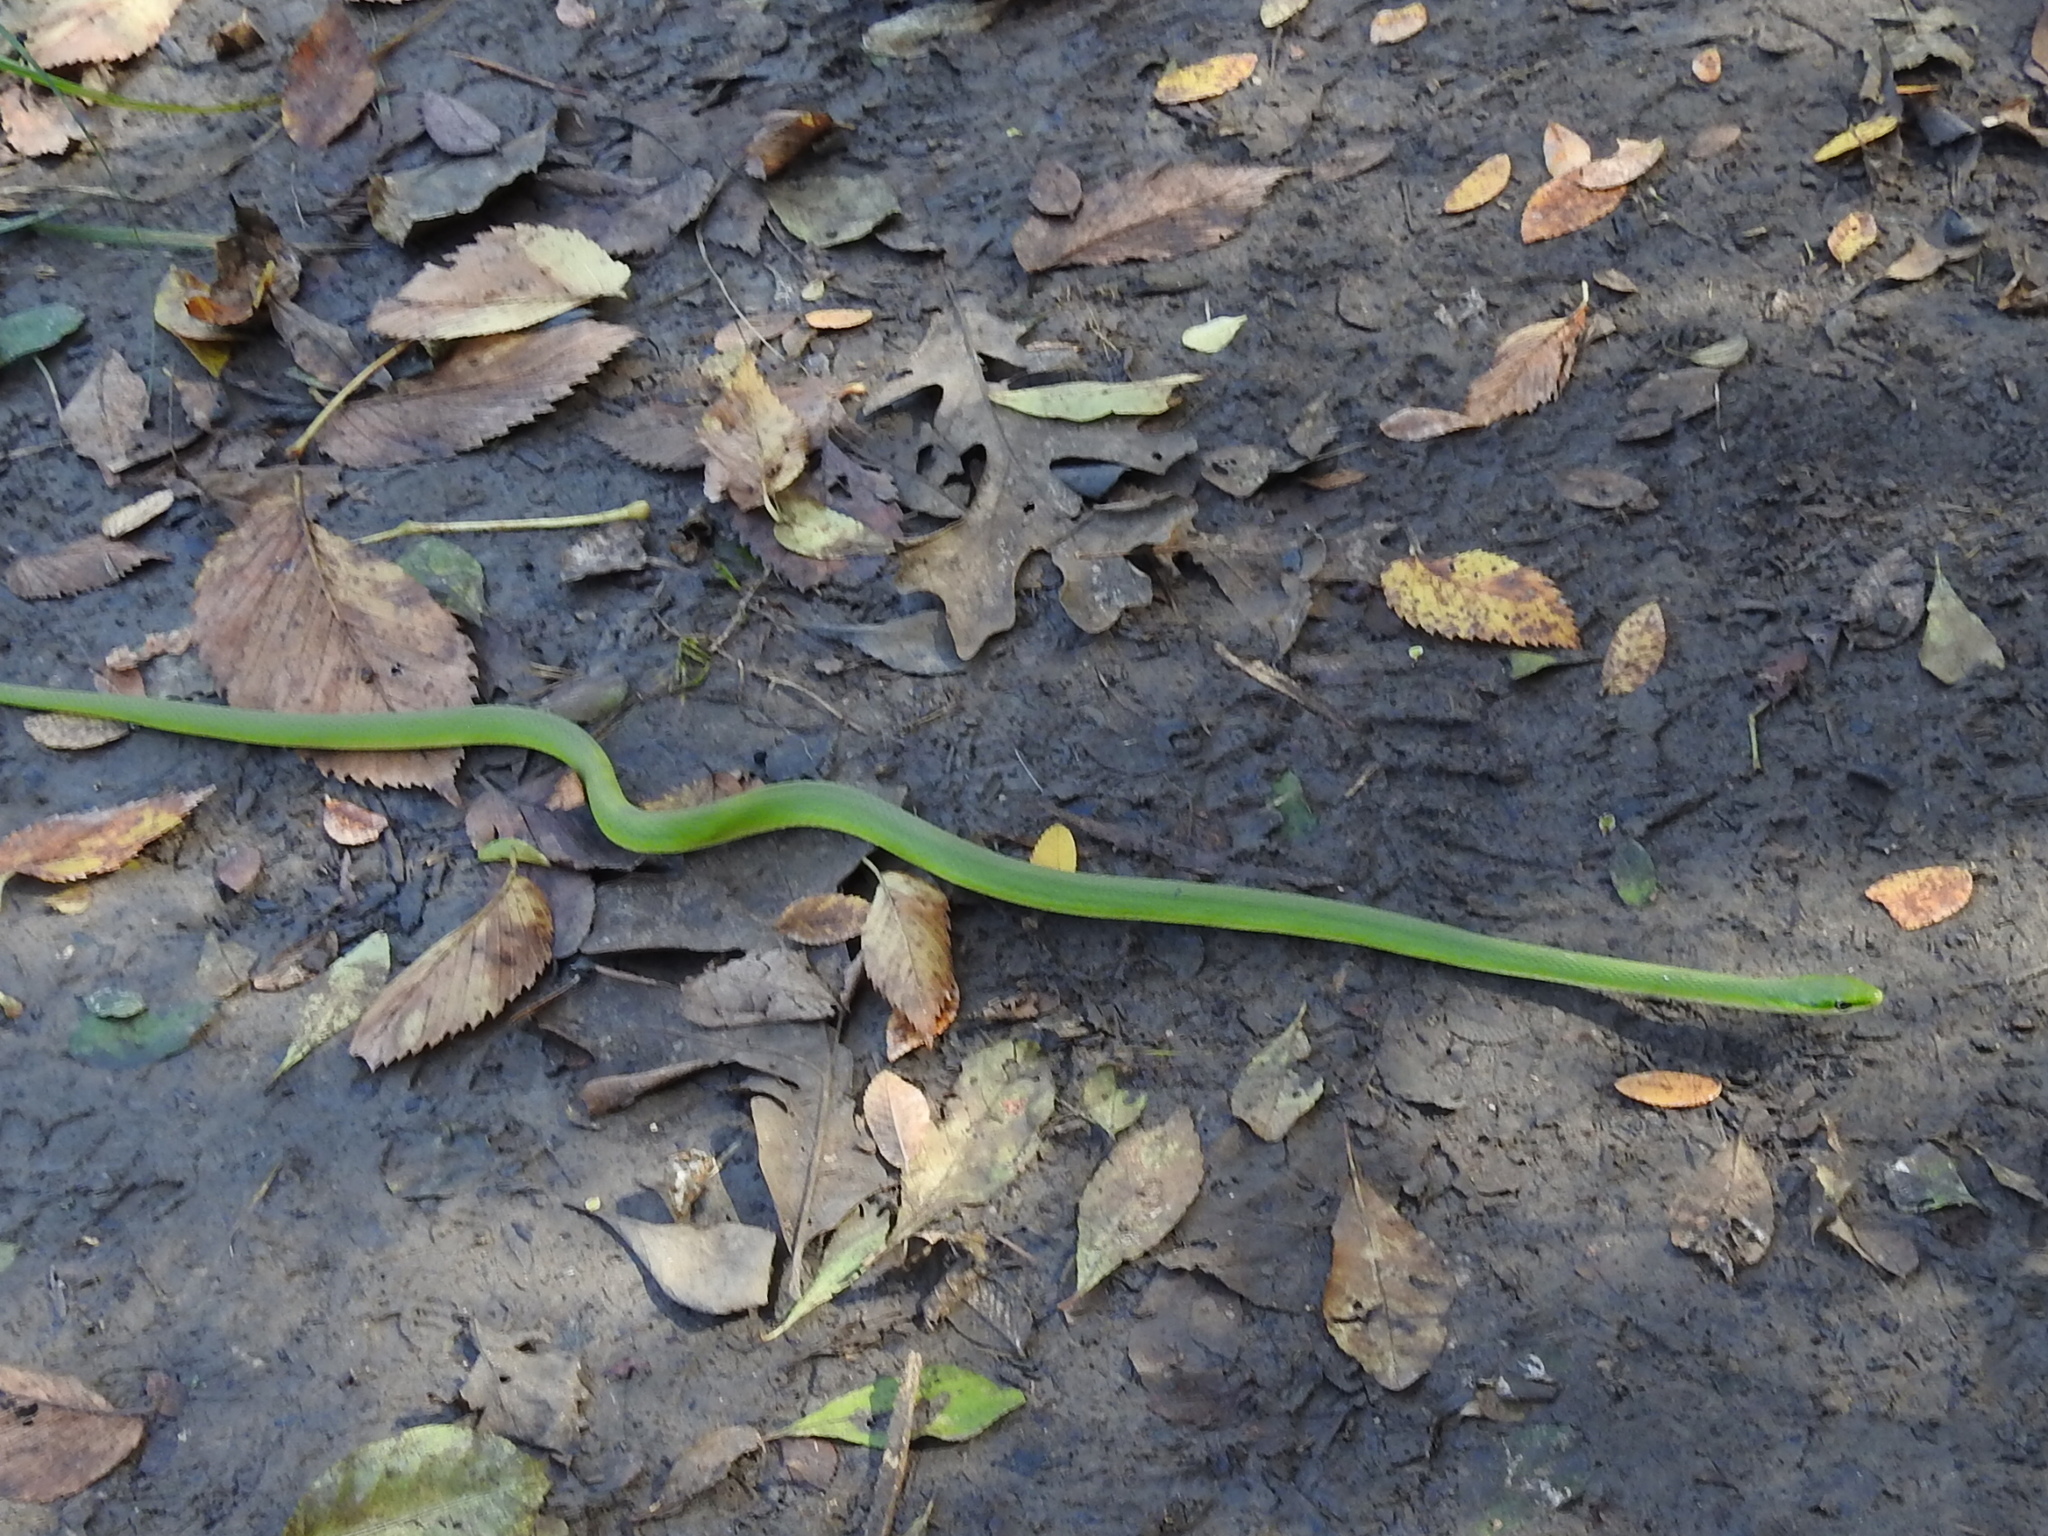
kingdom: Animalia
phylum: Chordata
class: Squamata
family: Colubridae
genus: Opheodrys
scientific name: Opheodrys aestivus
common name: Rough greensnake
